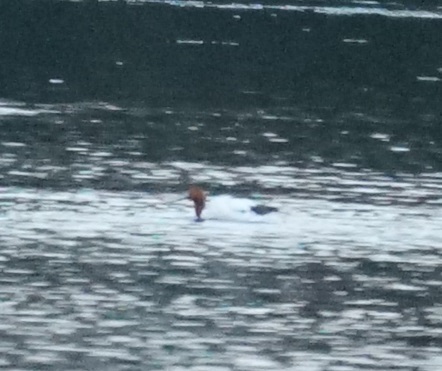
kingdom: Animalia
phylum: Chordata
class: Aves
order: Charadriiformes
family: Recurvirostridae
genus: Recurvirostra
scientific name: Recurvirostra novaehollandiae
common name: Red-necked avocet
